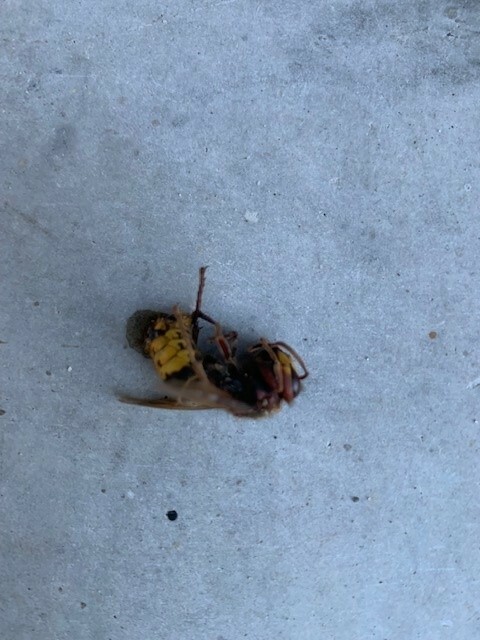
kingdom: Animalia
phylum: Arthropoda
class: Insecta
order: Hymenoptera
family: Vespidae
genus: Vespa
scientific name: Vespa crabro
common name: Hornet
